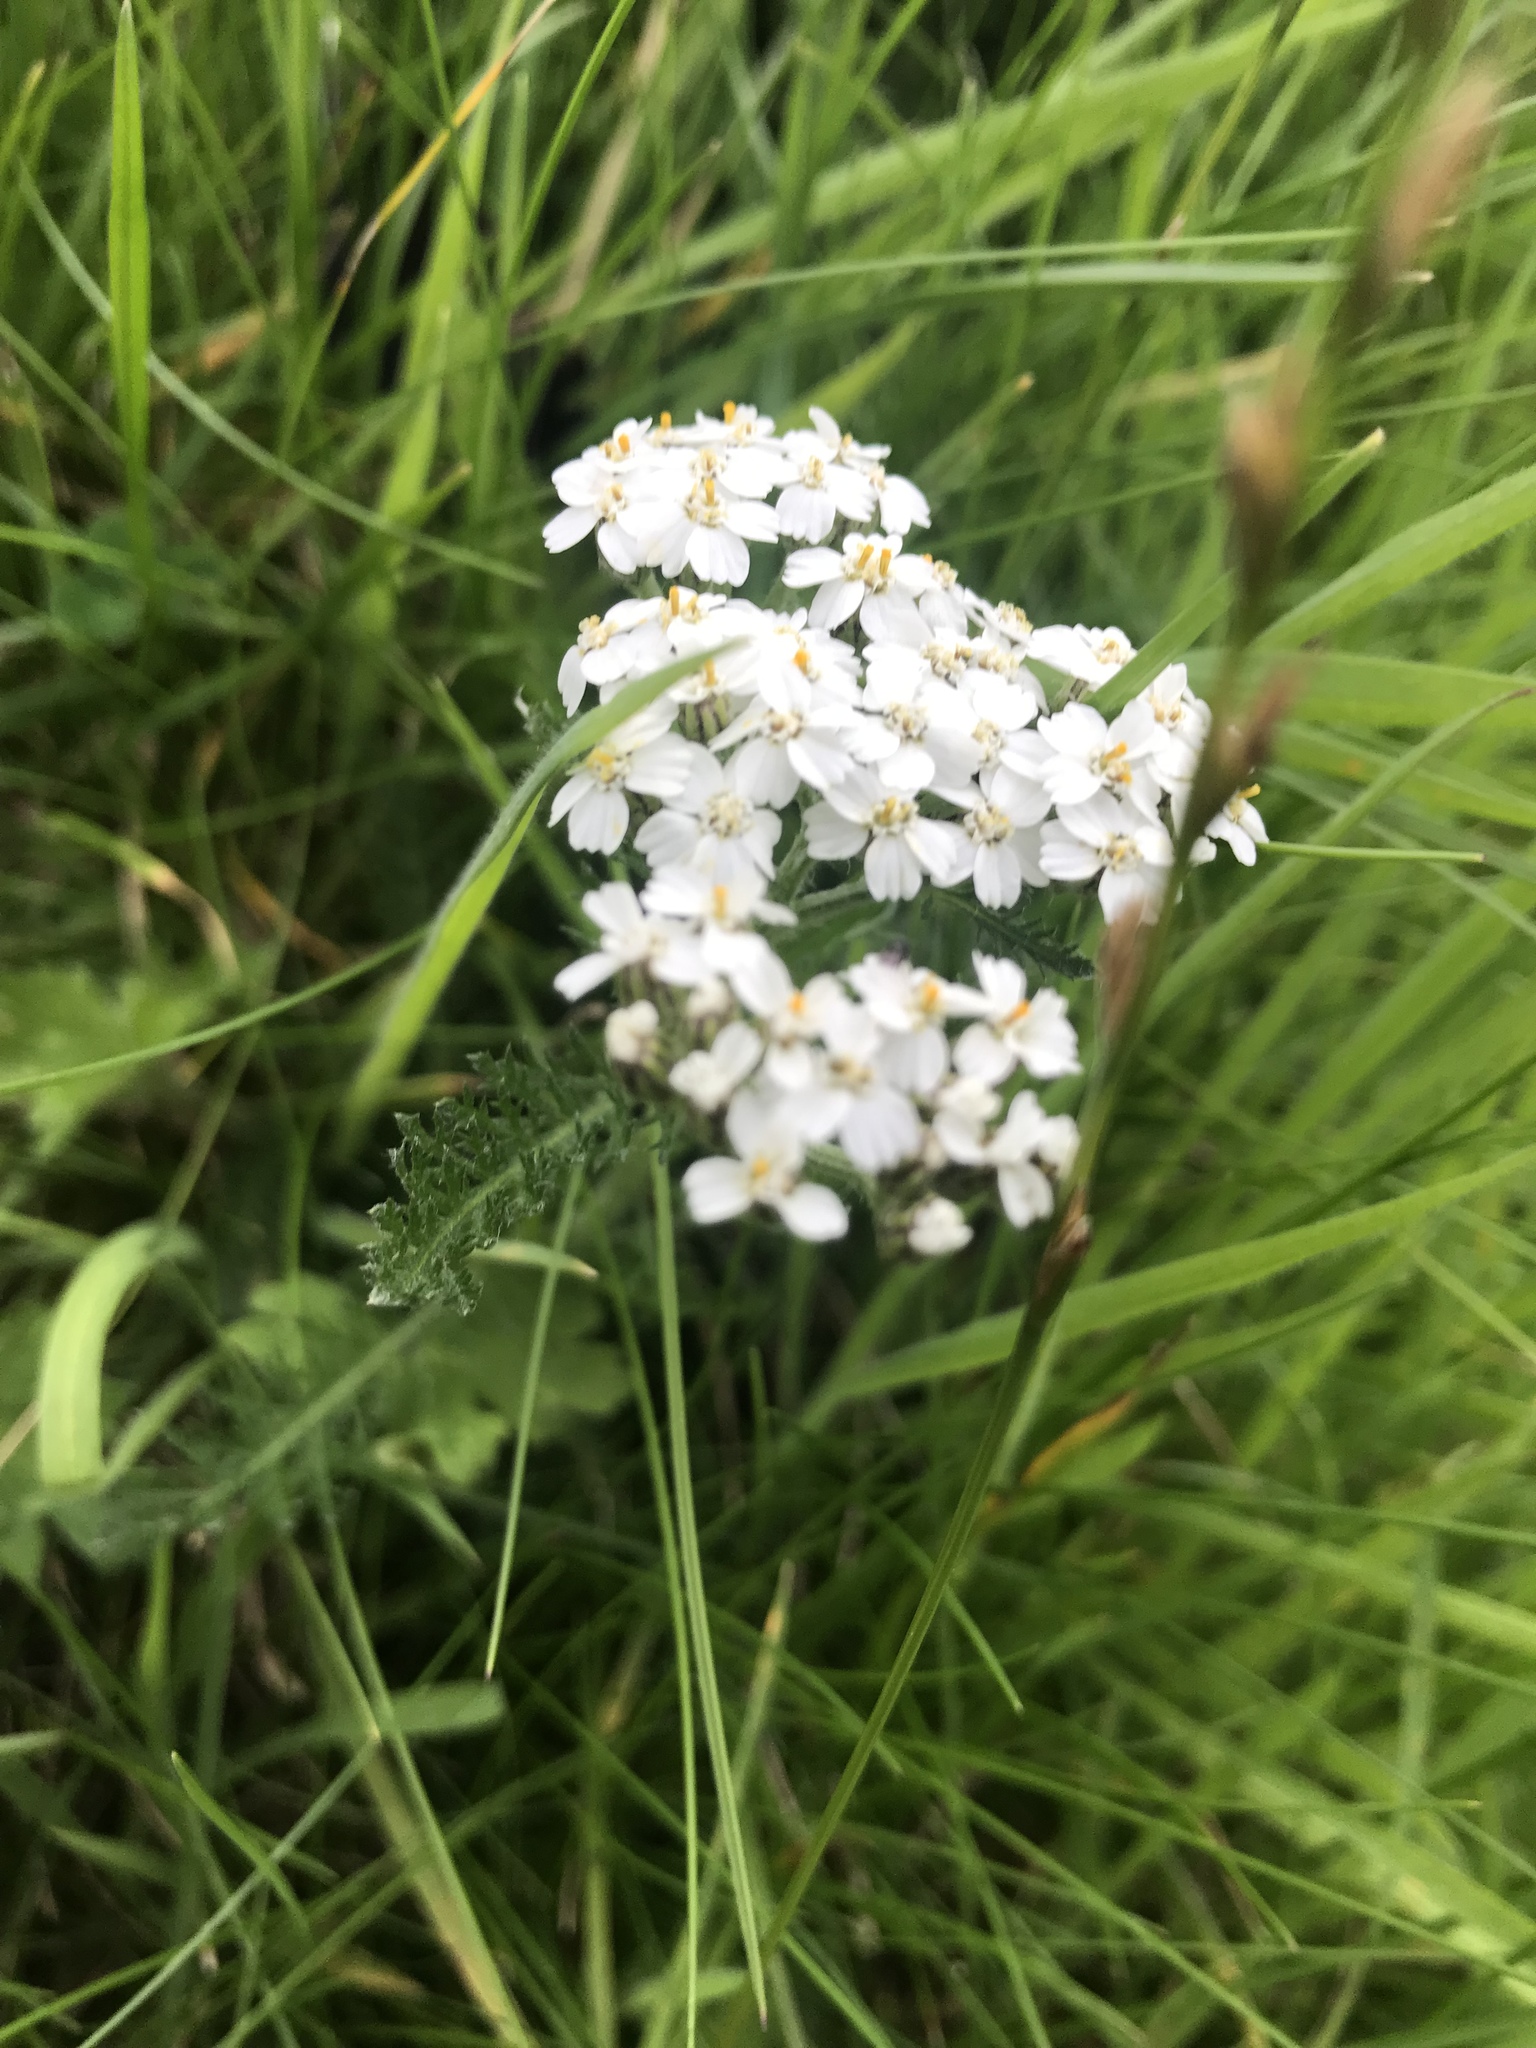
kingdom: Plantae
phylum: Tracheophyta
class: Magnoliopsida
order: Asterales
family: Asteraceae
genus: Achillea
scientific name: Achillea millefolium
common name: Yarrow
